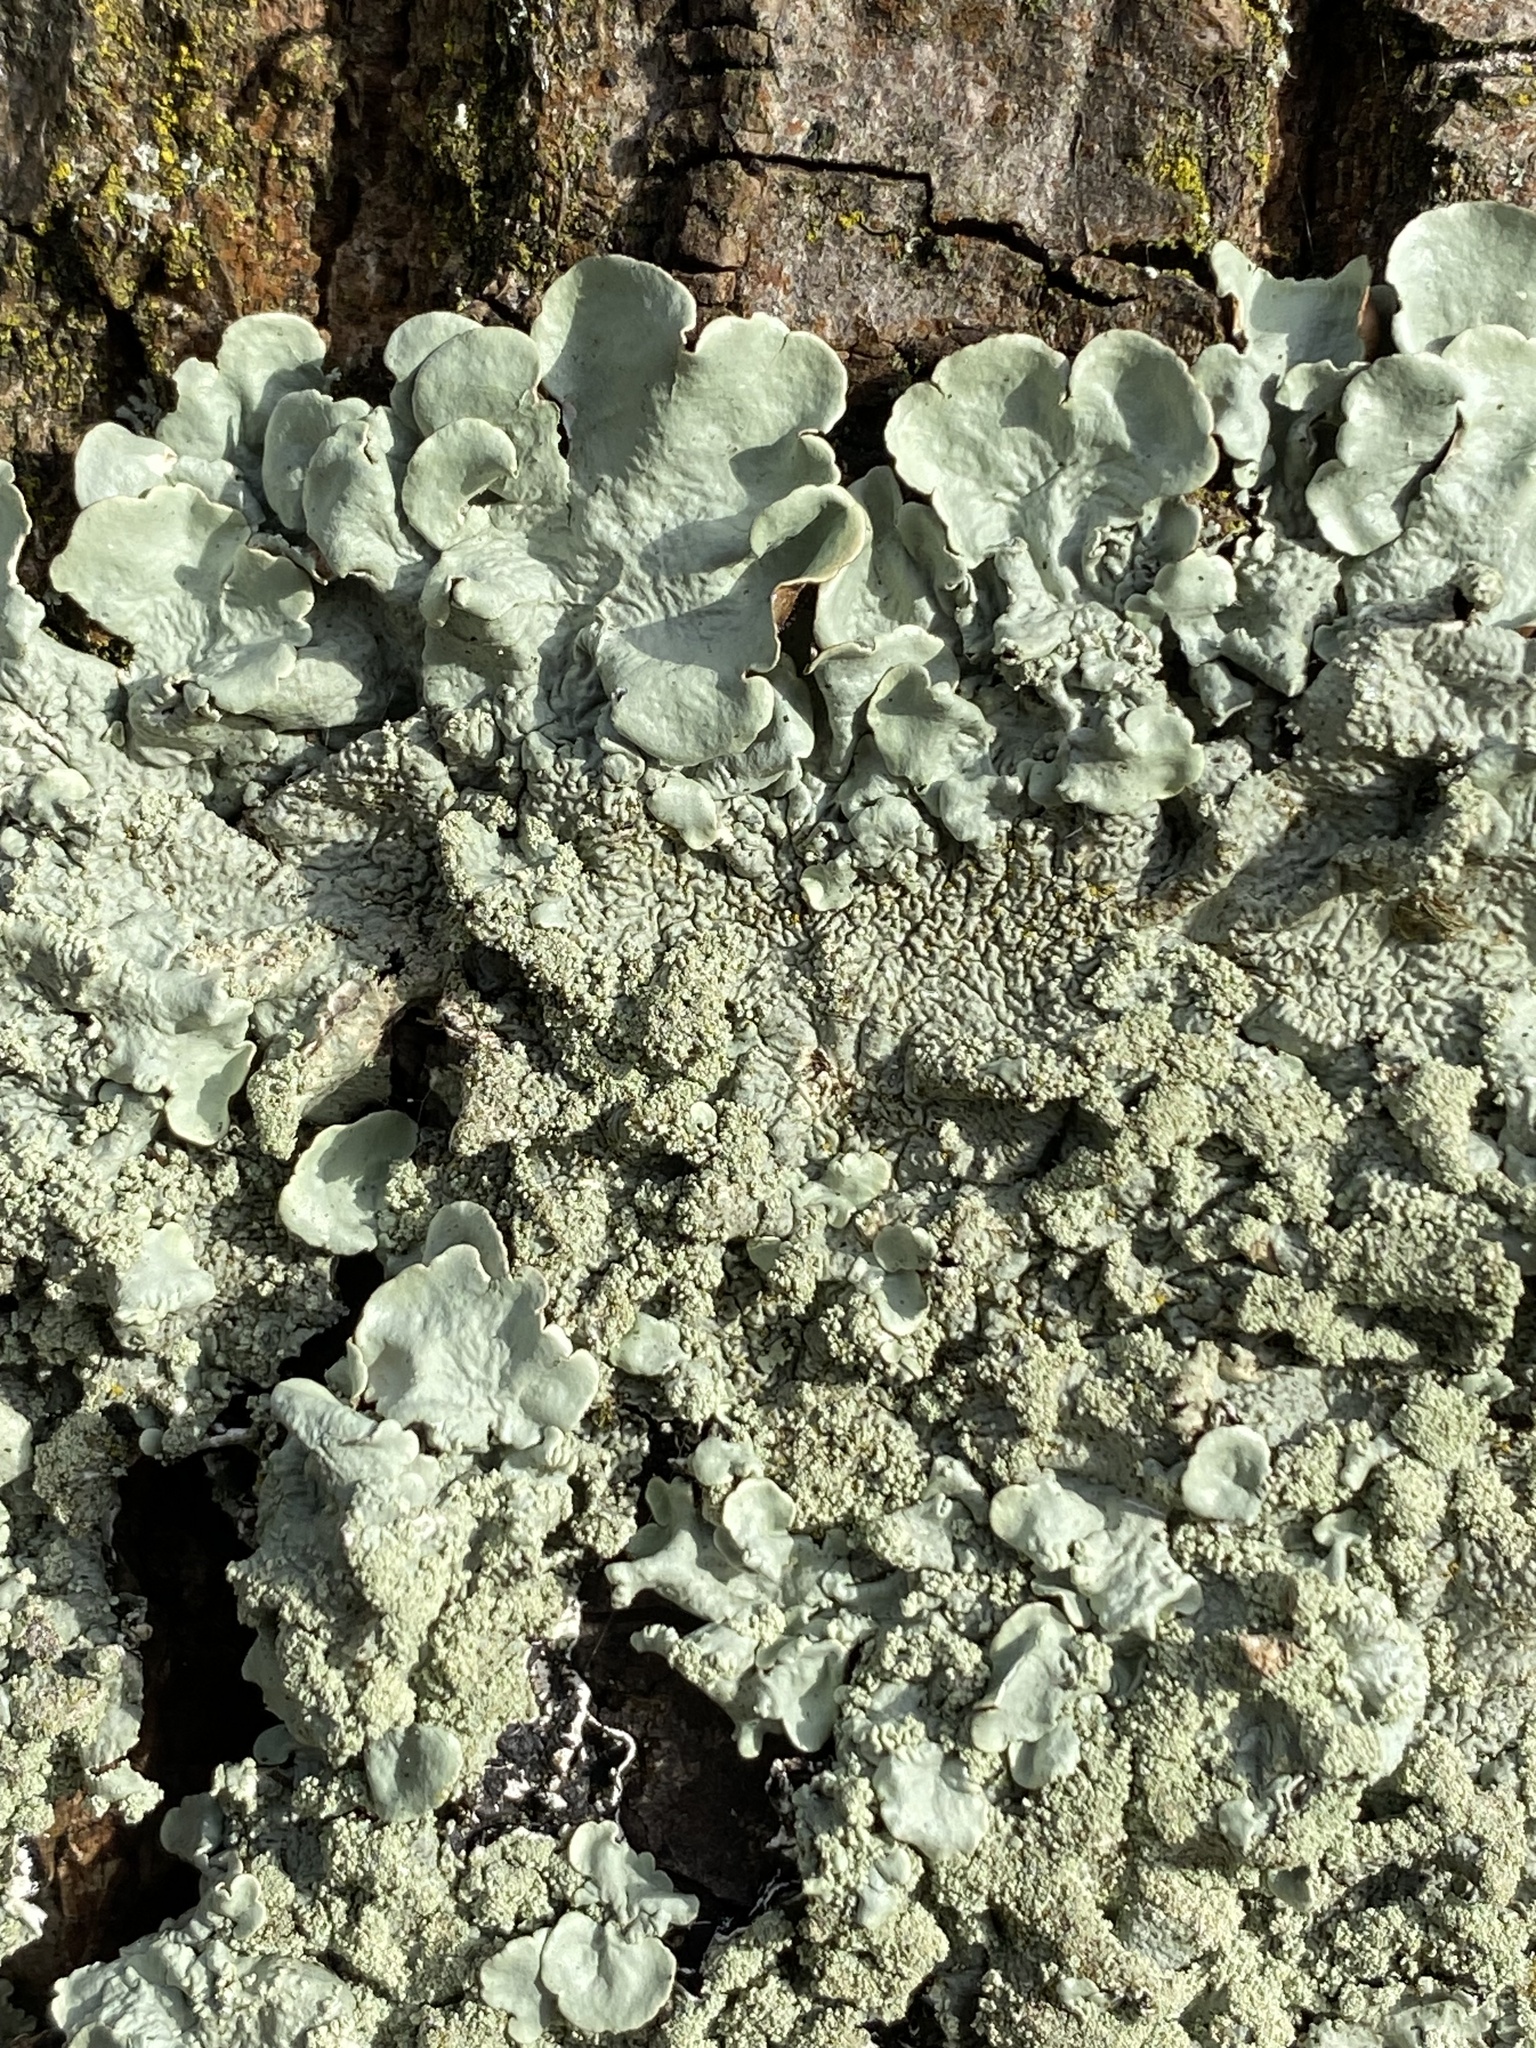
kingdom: Fungi
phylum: Ascomycota
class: Lecanoromycetes
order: Lecanorales
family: Parmeliaceae
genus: Flavoparmelia
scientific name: Flavoparmelia caperata
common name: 40-mile per hour lichen
